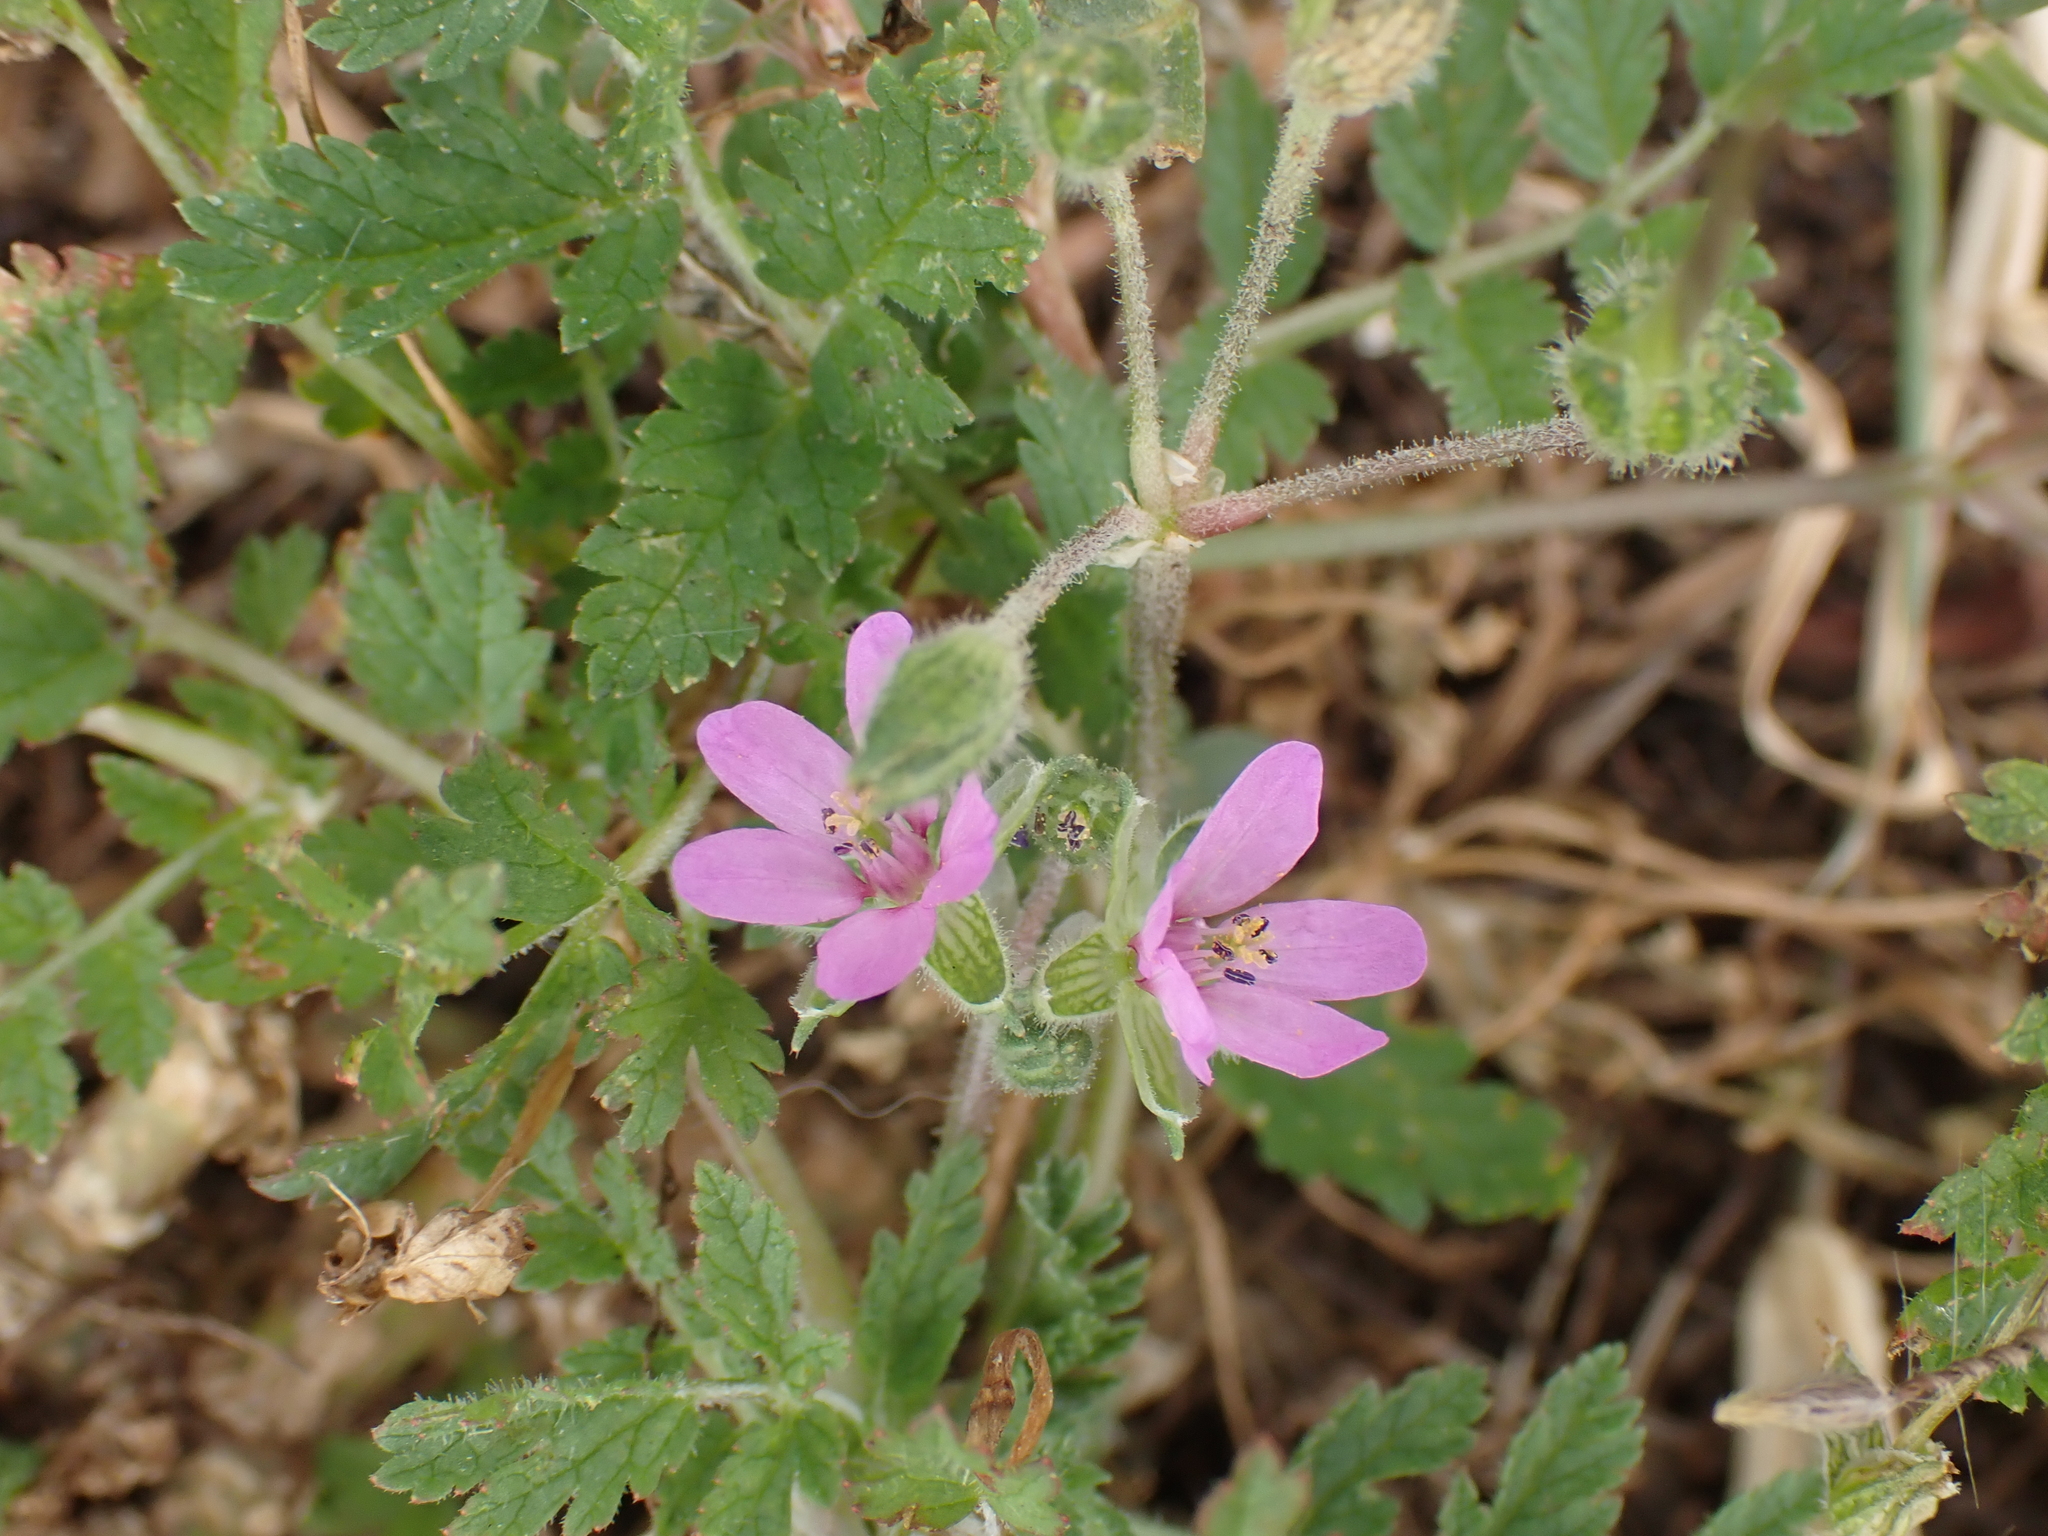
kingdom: Plantae
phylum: Tracheophyta
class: Magnoliopsida
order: Geraniales
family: Geraniaceae
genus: Erodium
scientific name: Erodium moschatum
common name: Musk stork's-bill
